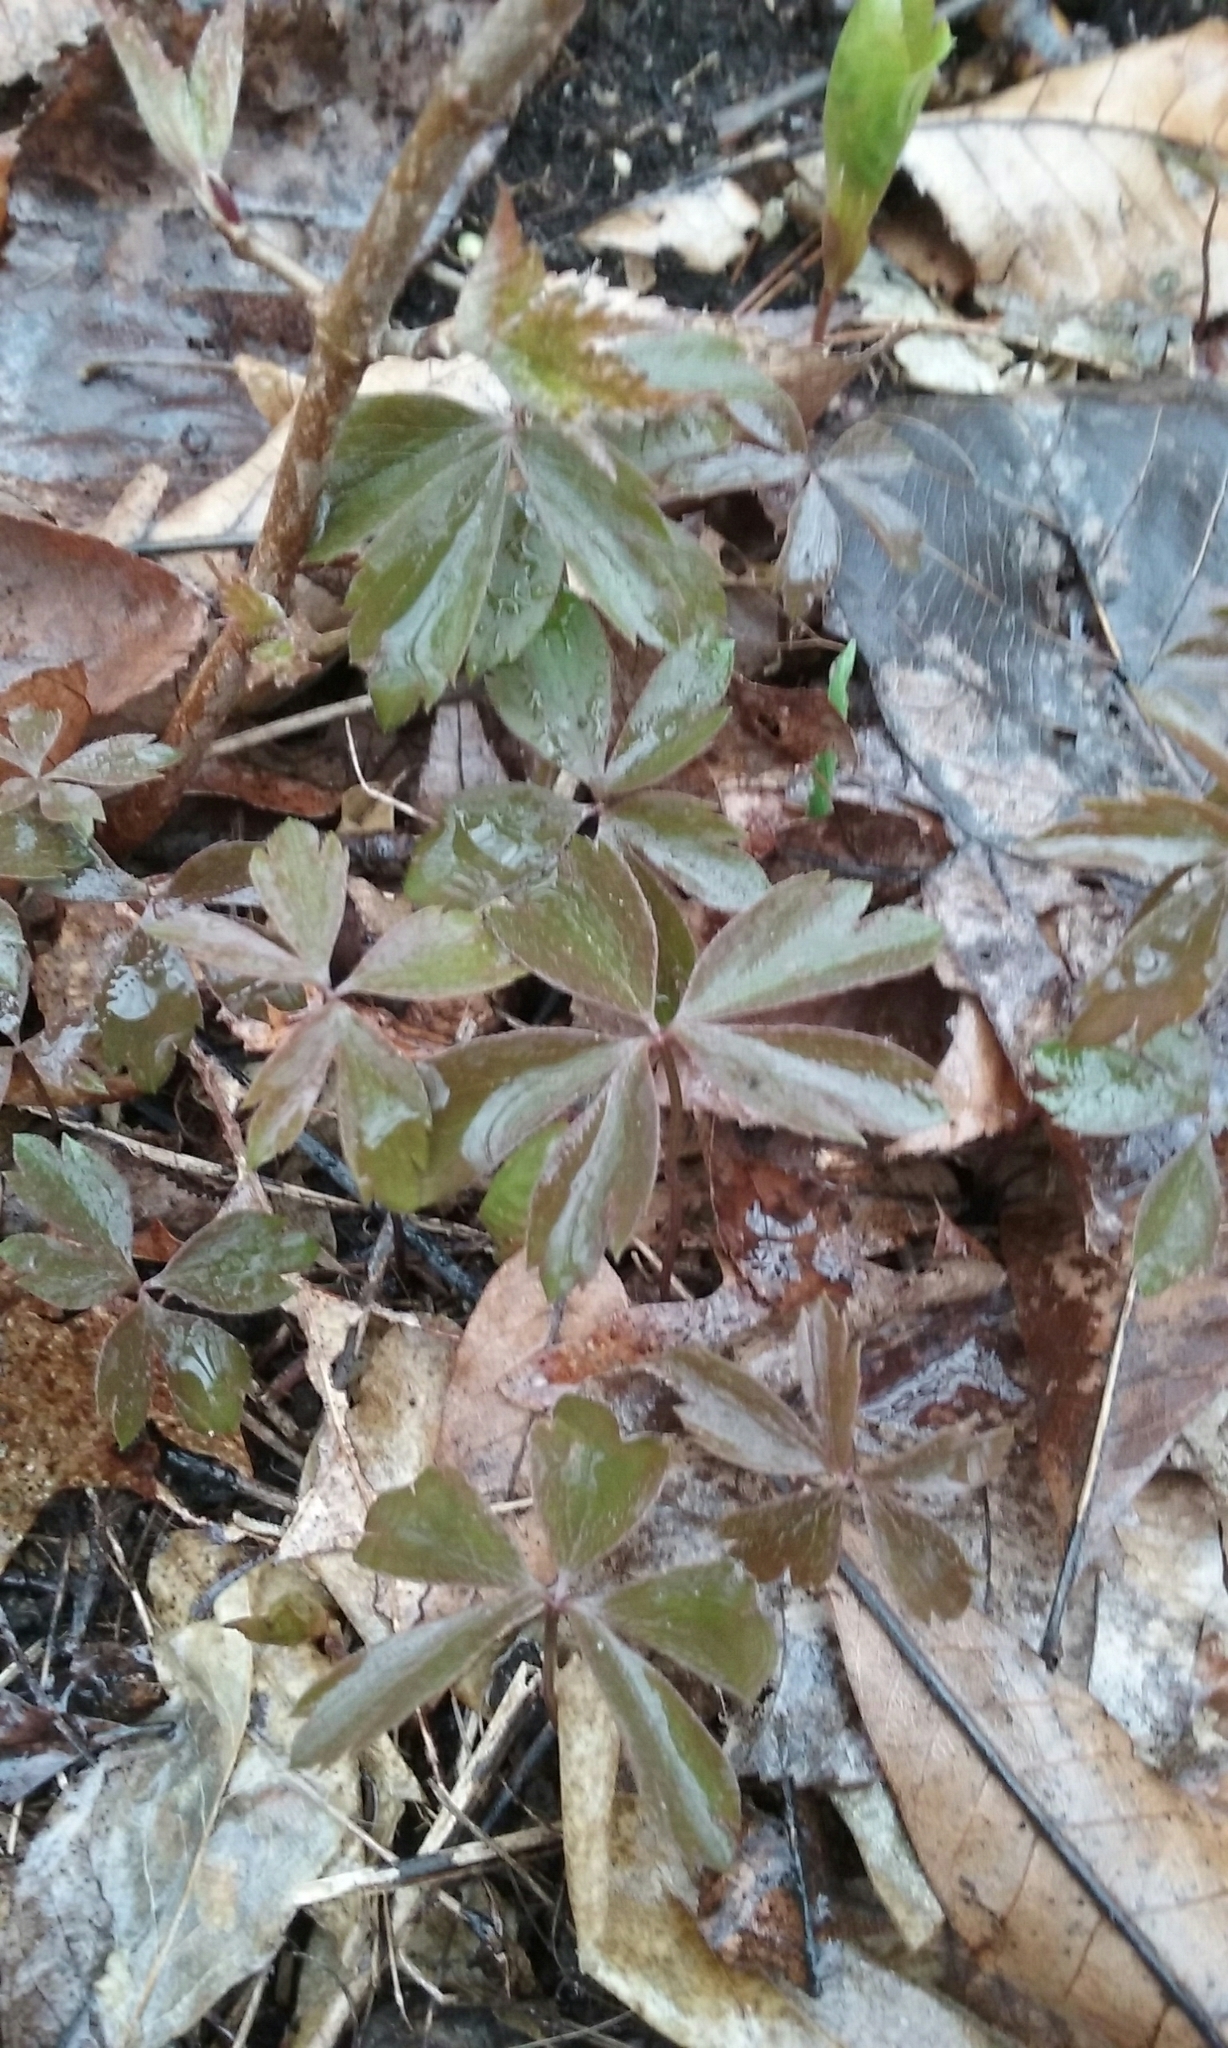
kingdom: Plantae
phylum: Tracheophyta
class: Magnoliopsida
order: Ranunculales
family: Ranunculaceae
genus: Anemone
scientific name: Anemone quinquefolia
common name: Wood anemone
